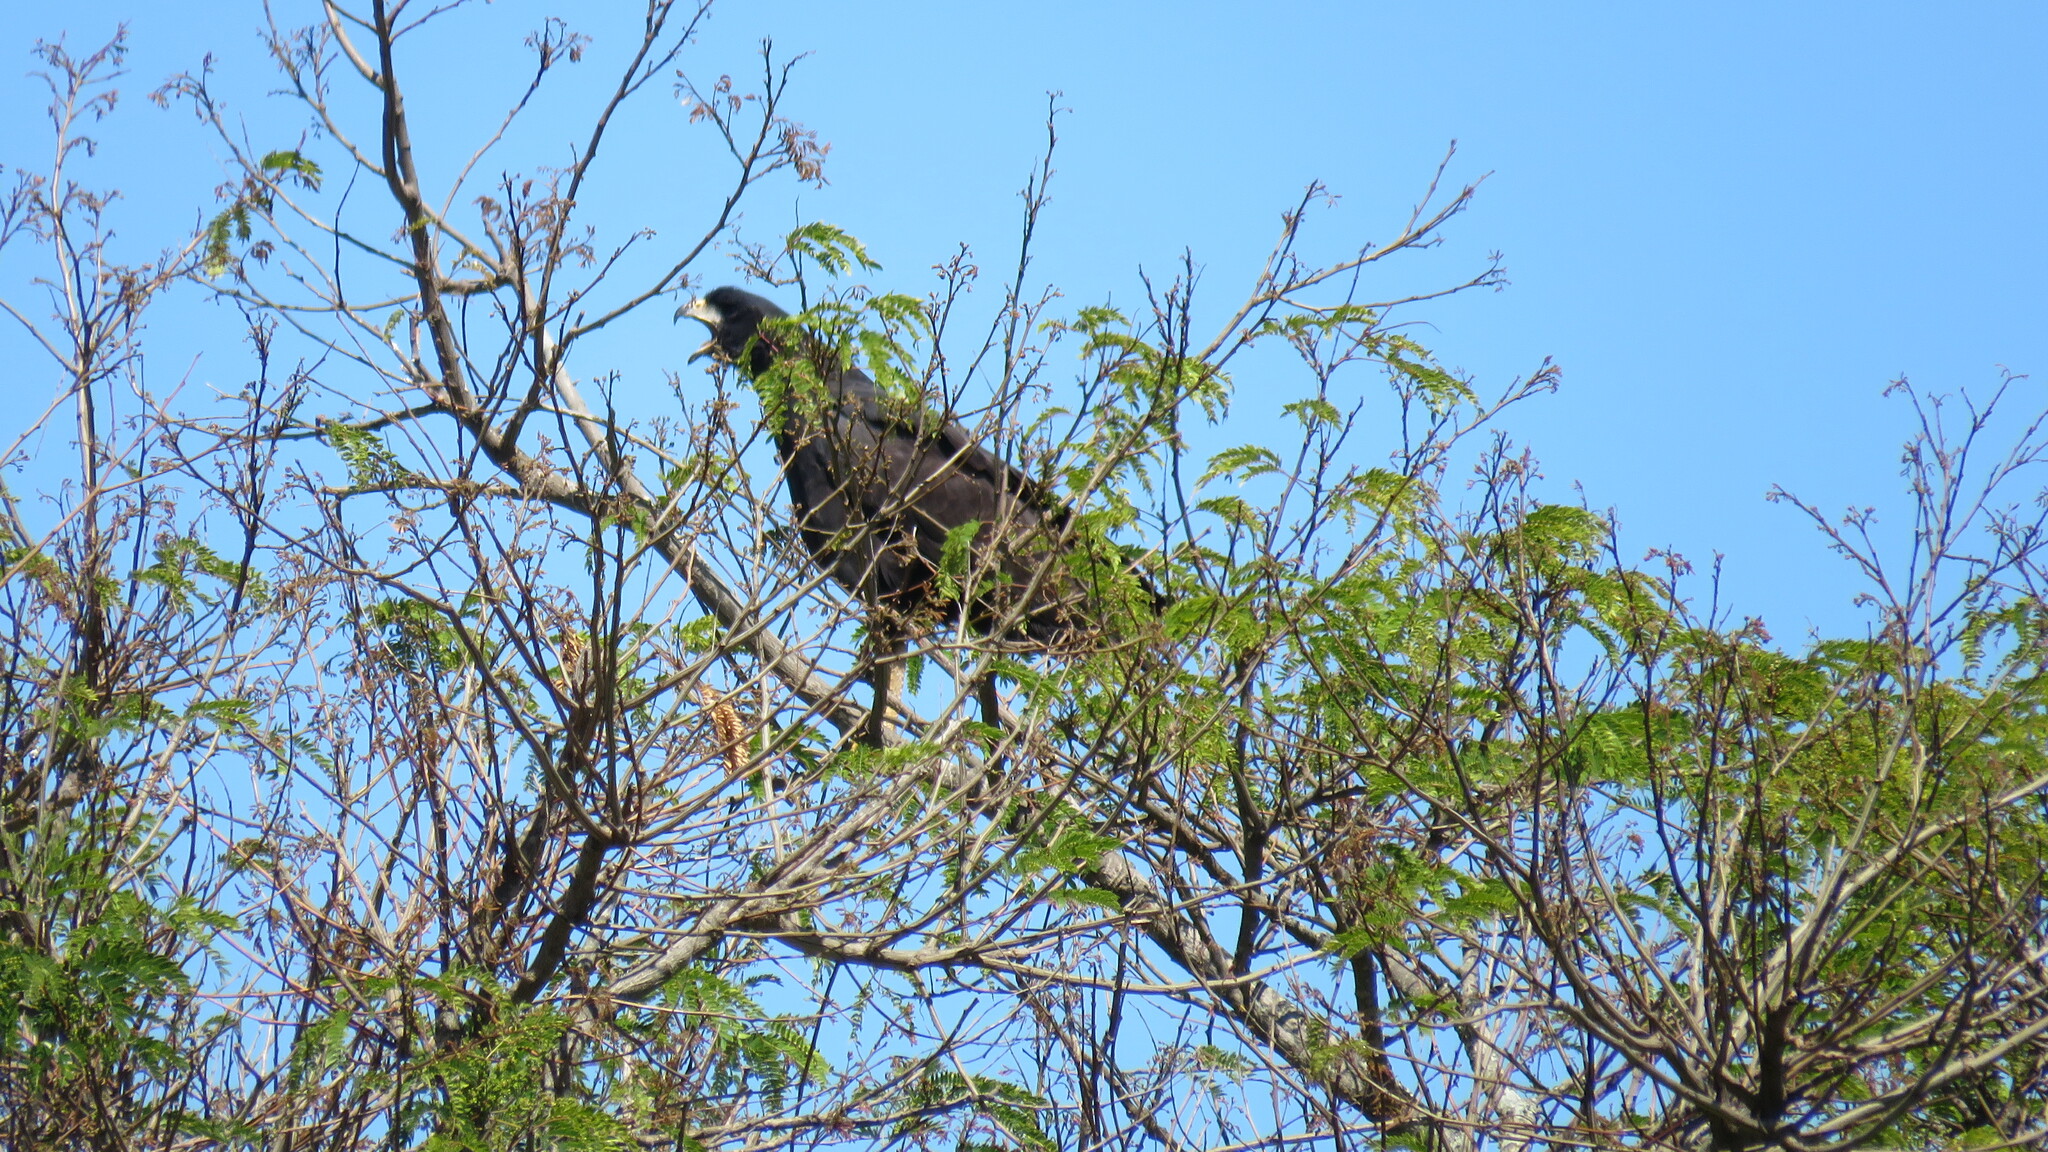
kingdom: Animalia
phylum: Chordata
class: Aves
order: Accipitriformes
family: Accipitridae
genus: Buteogallus
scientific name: Buteogallus urubitinga
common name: Great black hawk
